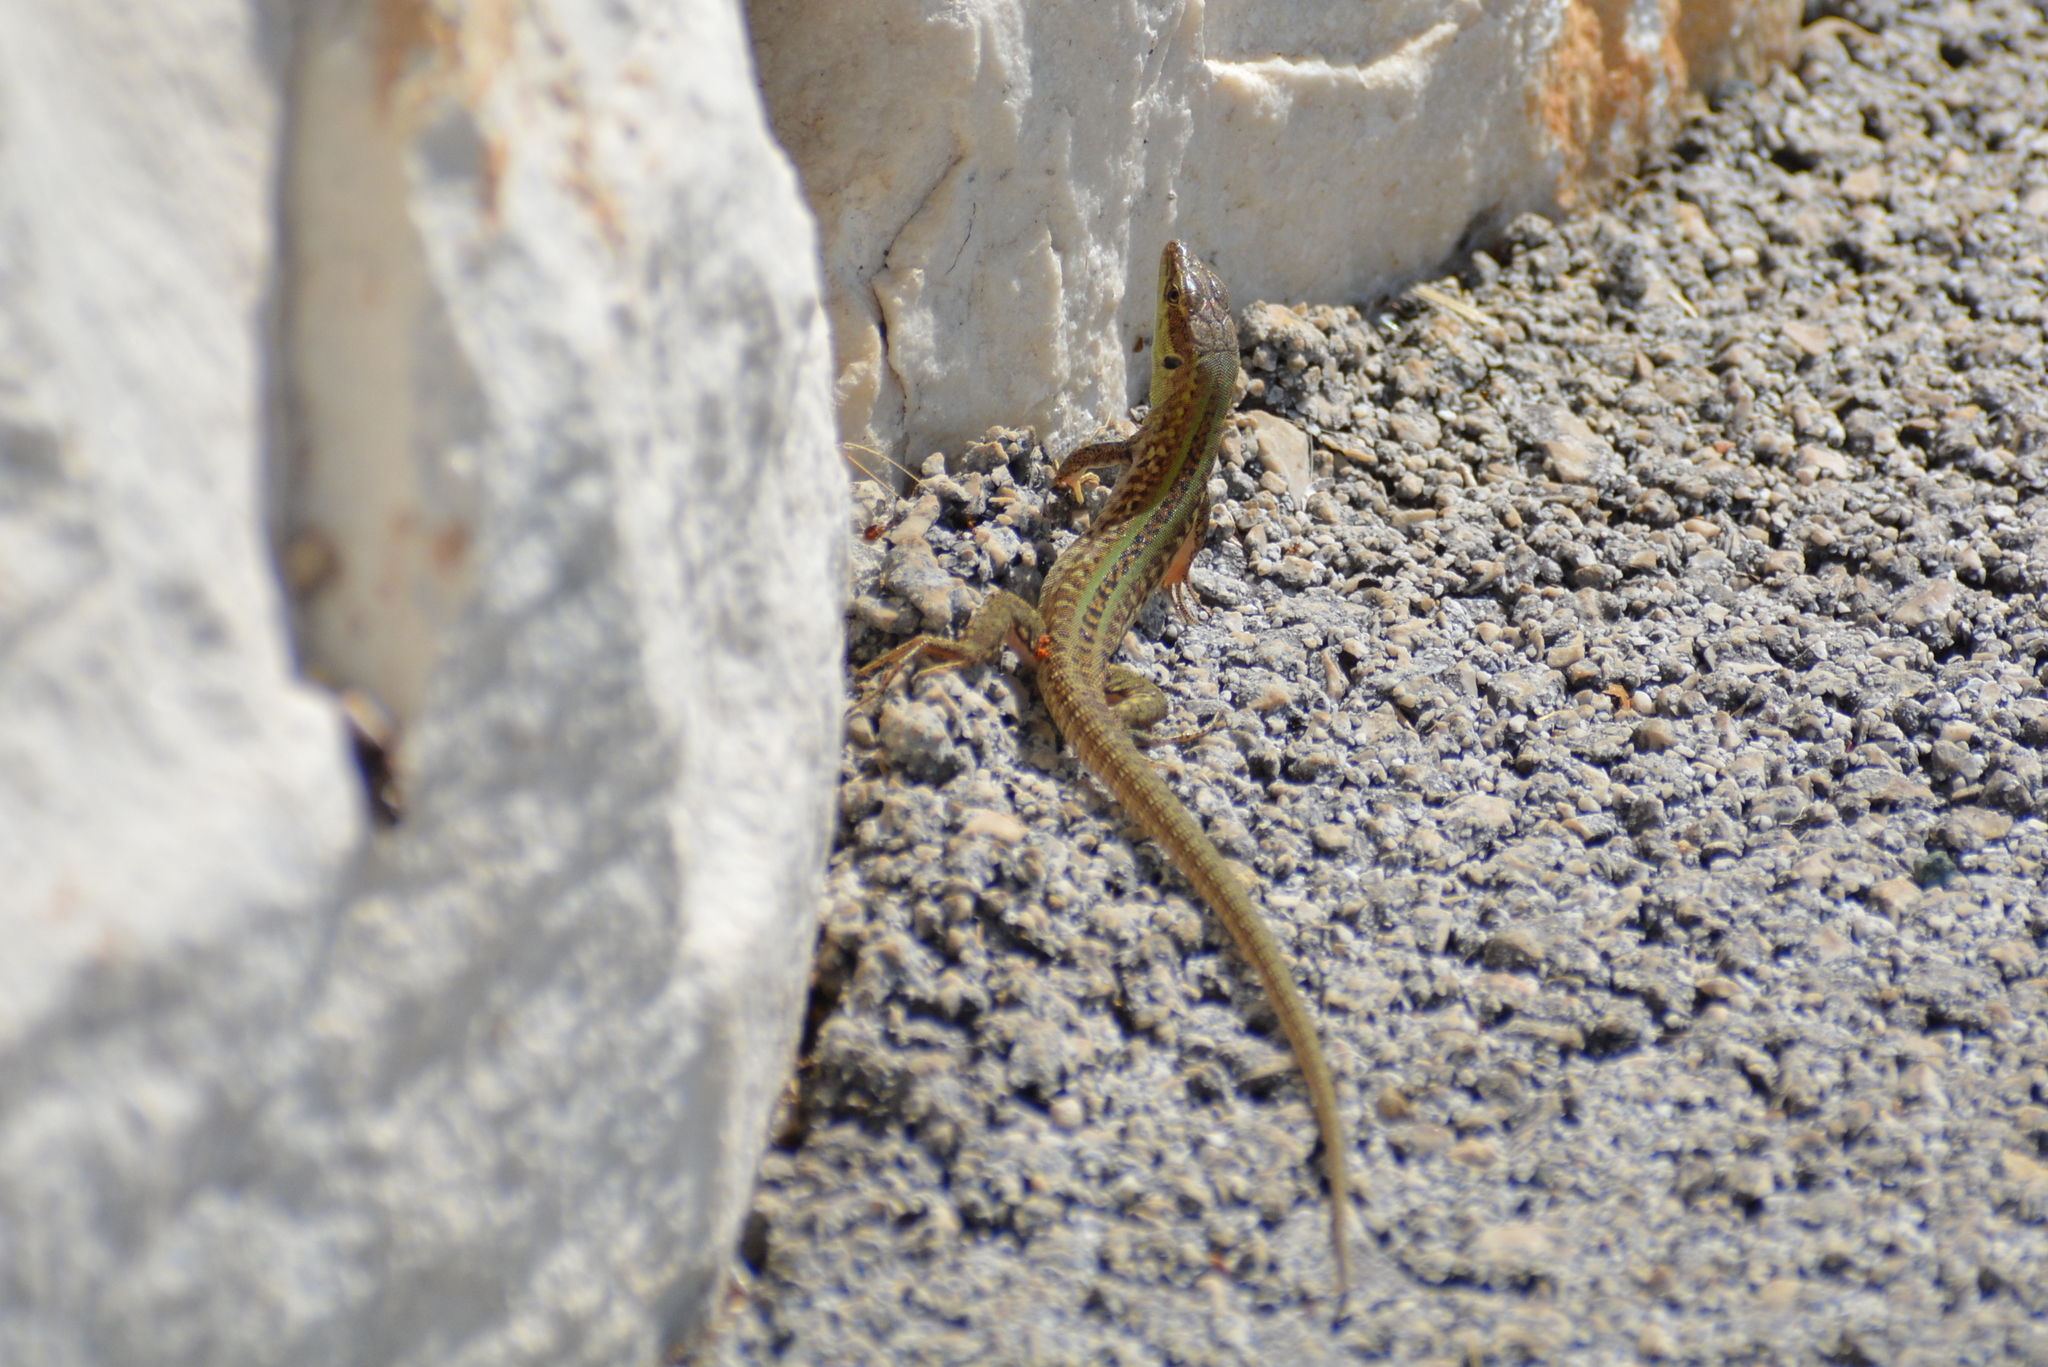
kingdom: Animalia
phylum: Chordata
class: Squamata
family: Lacertidae
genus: Podarcis
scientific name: Podarcis siculus
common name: Italian wall lizard
